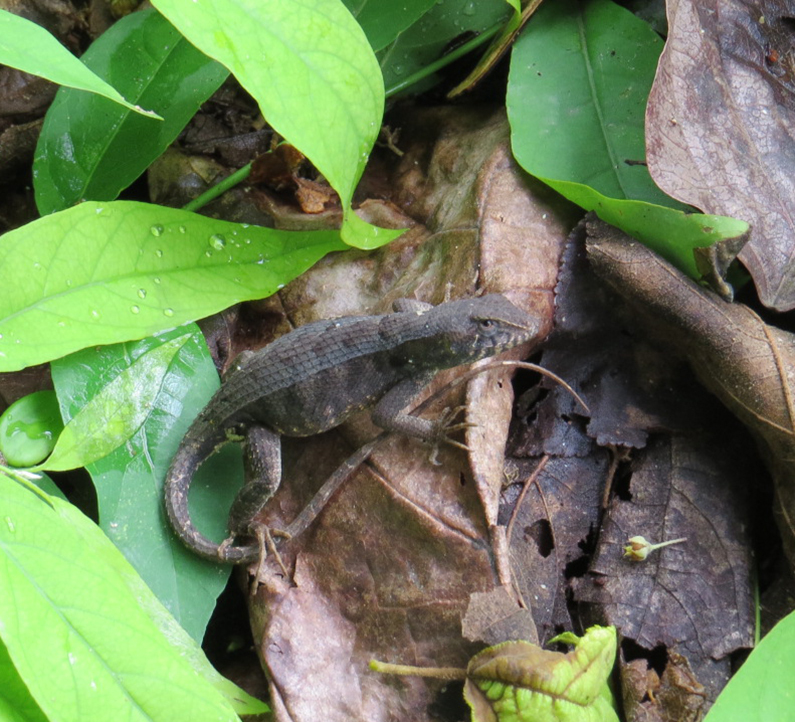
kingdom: Animalia
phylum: Chordata
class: Squamata
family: Phrynosomatidae
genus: Sceloporus
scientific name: Sceloporus siniferus
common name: Longtail spiny lizard
